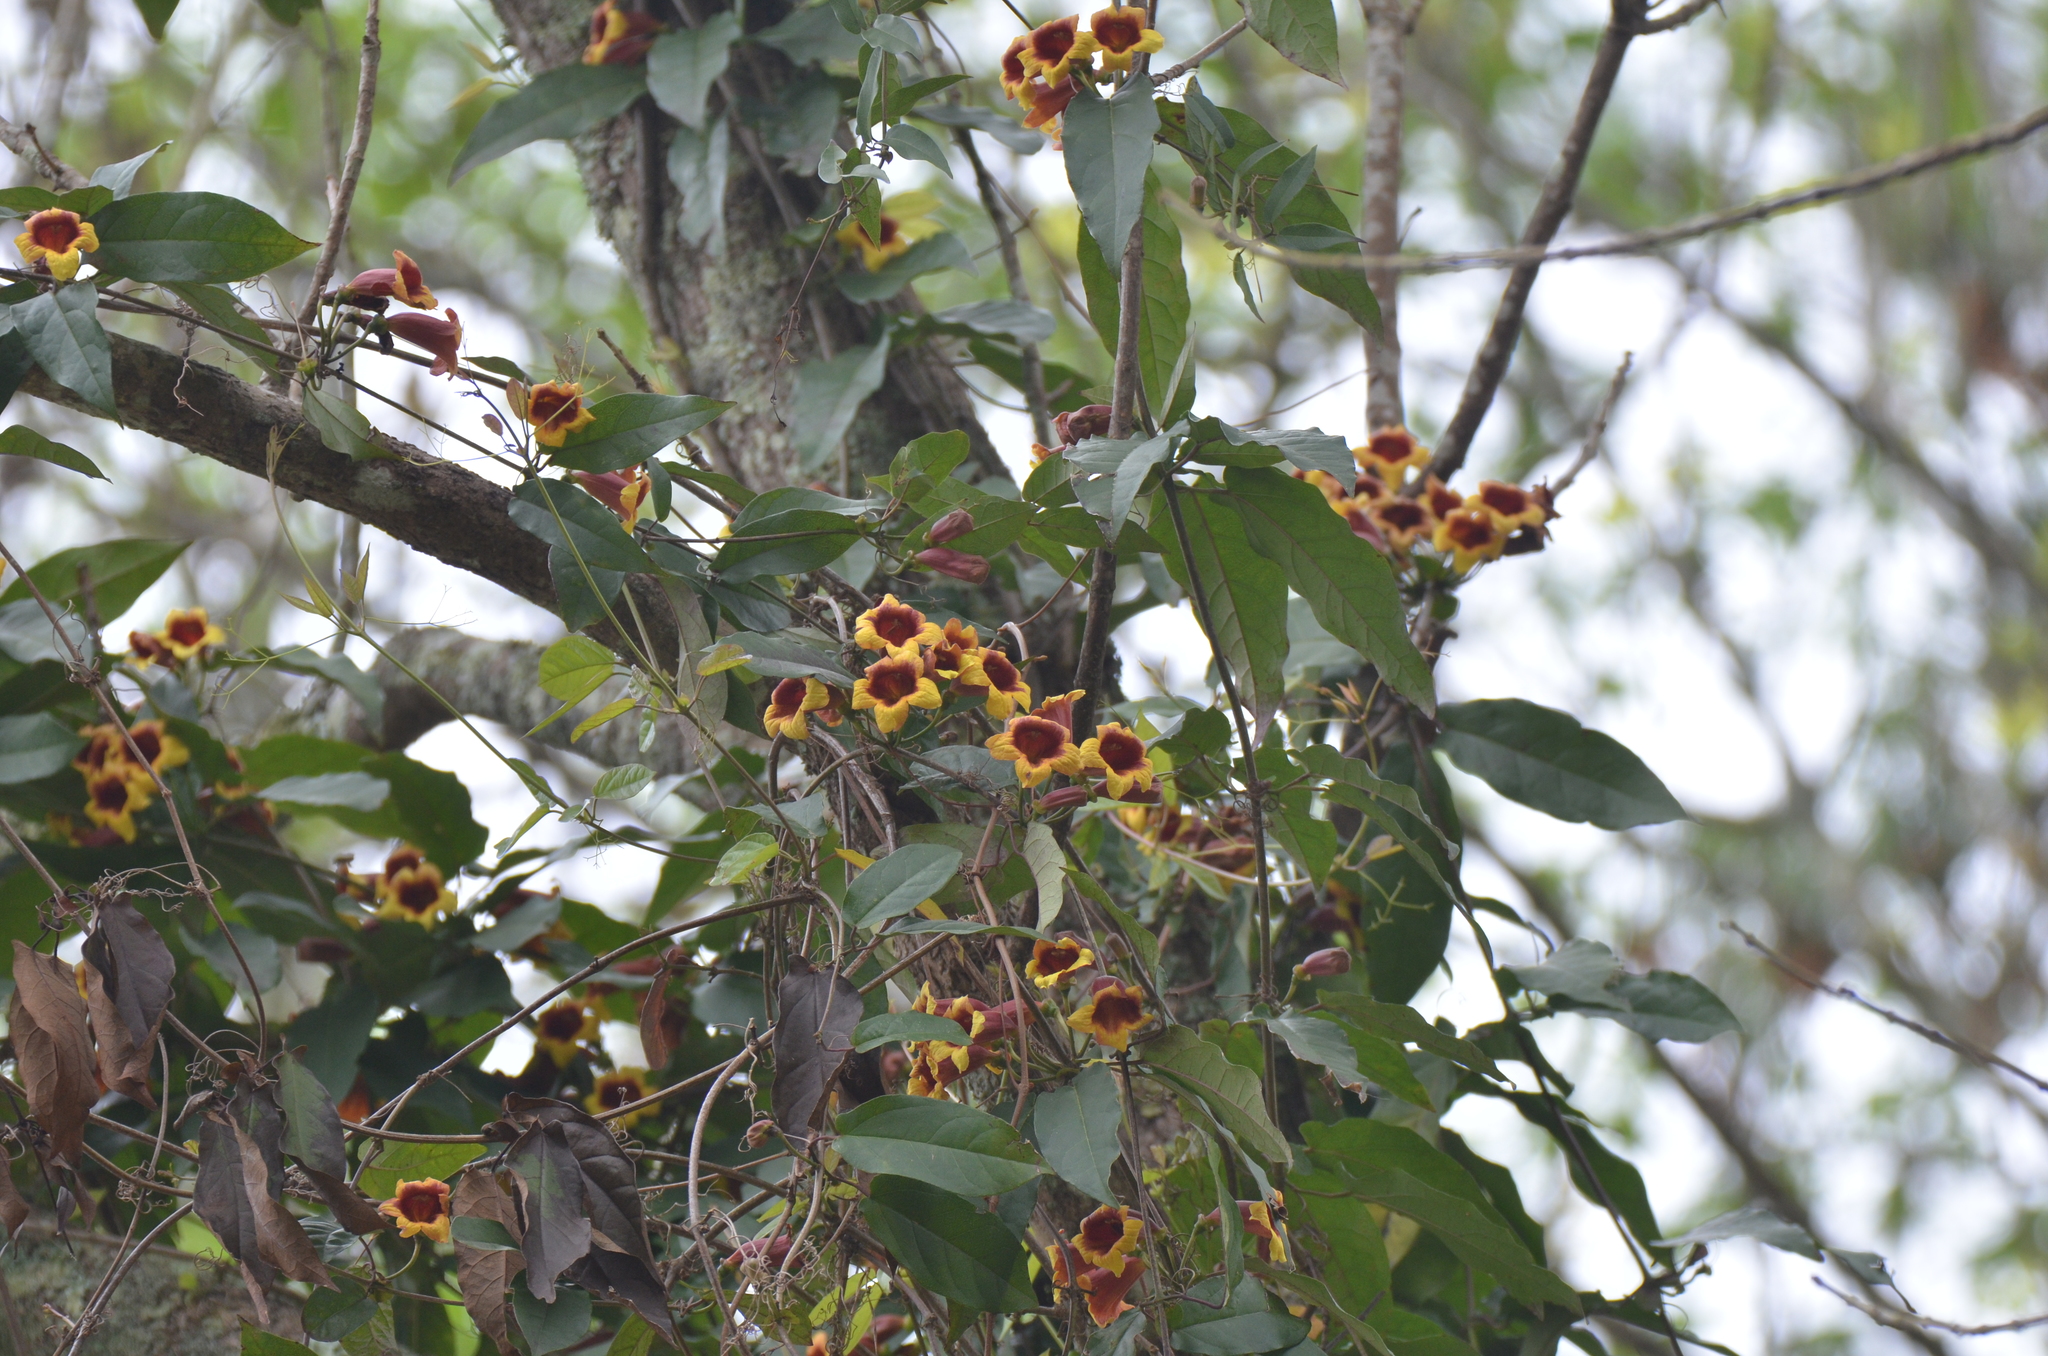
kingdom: Plantae
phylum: Tracheophyta
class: Magnoliopsida
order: Lamiales
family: Bignoniaceae
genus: Bignonia
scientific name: Bignonia capreolata
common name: Crossvine
